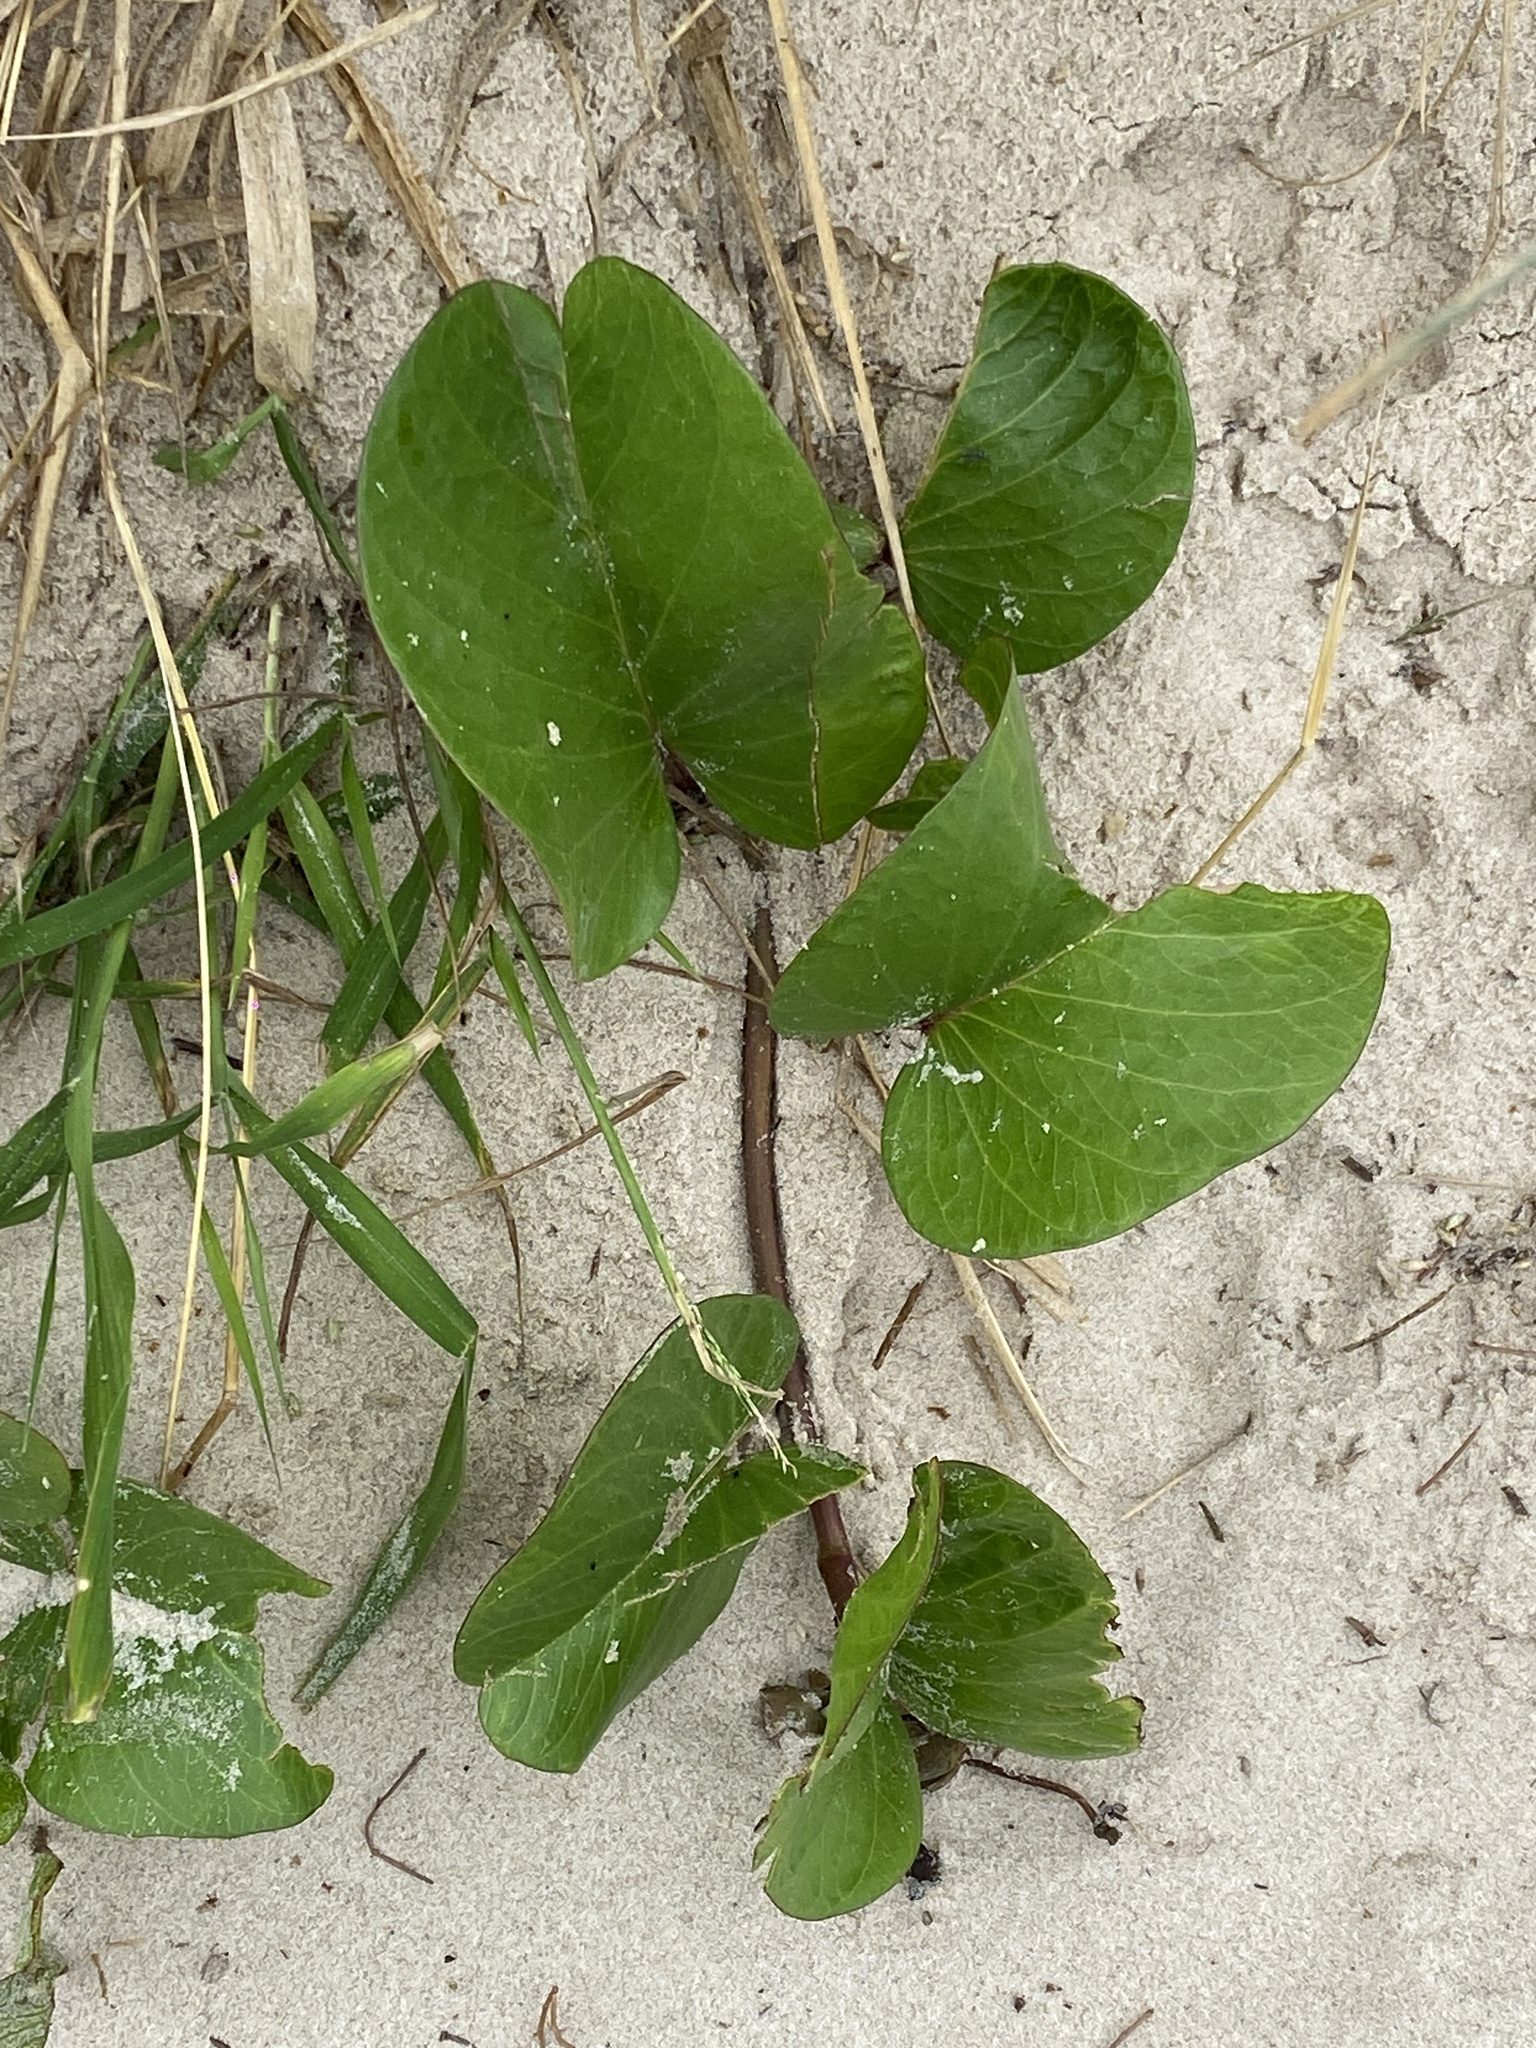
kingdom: Plantae
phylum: Tracheophyta
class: Magnoliopsida
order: Solanales
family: Convolvulaceae
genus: Ipomoea
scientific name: Ipomoea pes-caprae
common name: Beach morning glory
